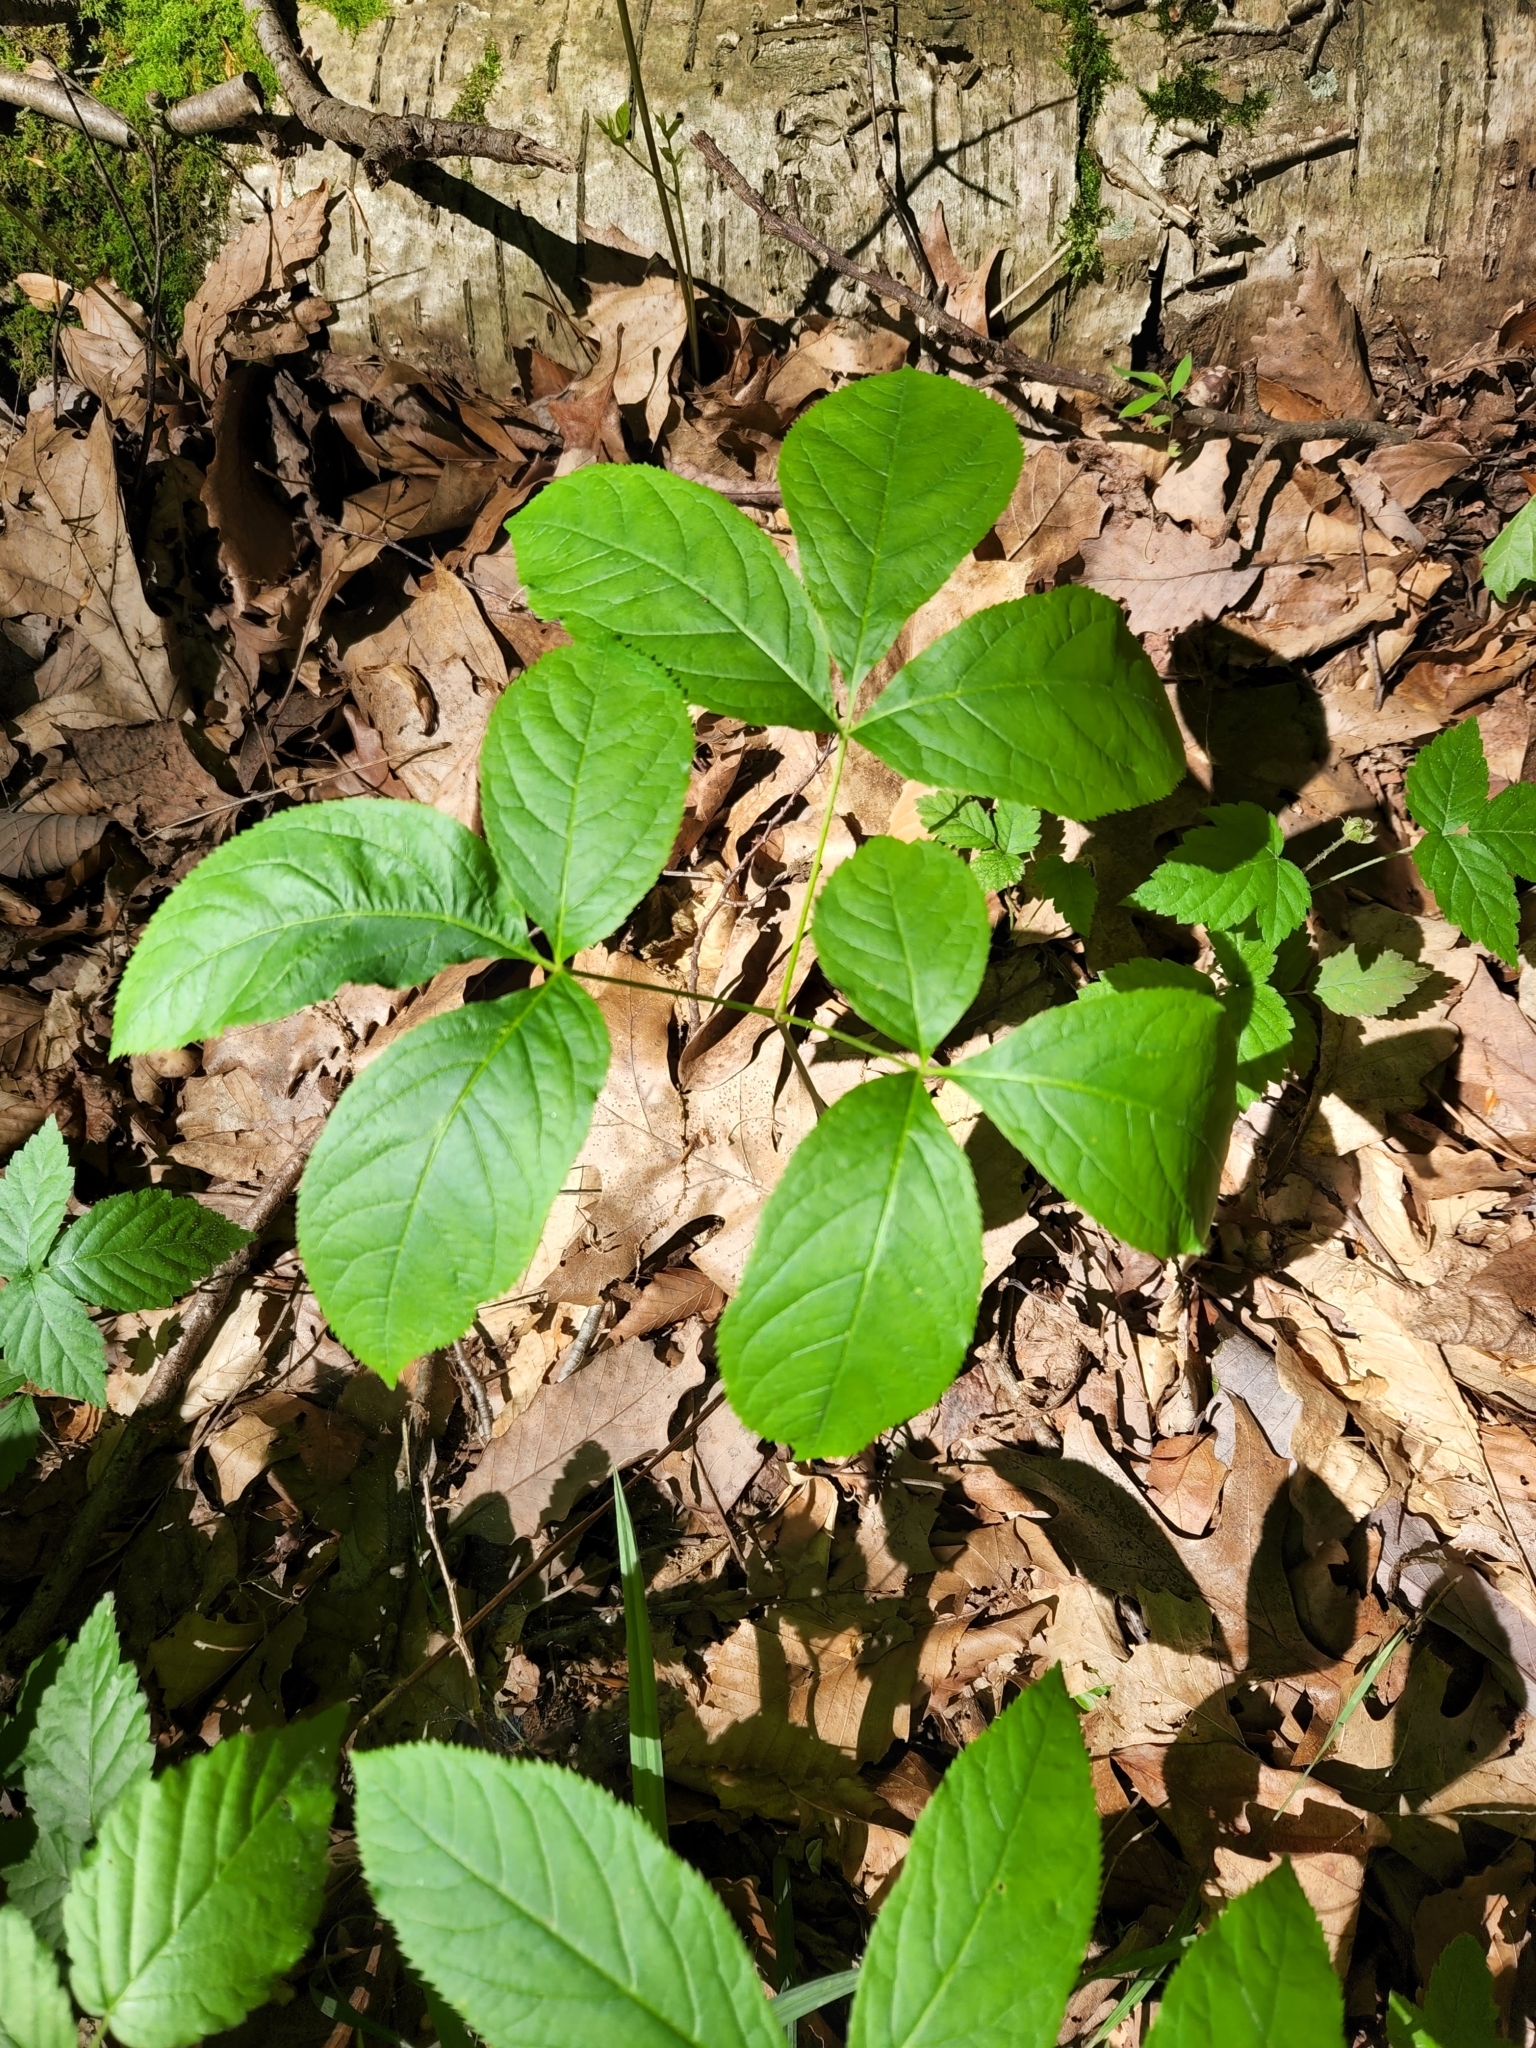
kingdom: Plantae
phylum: Tracheophyta
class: Magnoliopsida
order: Apiales
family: Araliaceae
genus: Aralia
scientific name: Aralia nudicaulis
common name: Wild sarsaparilla
